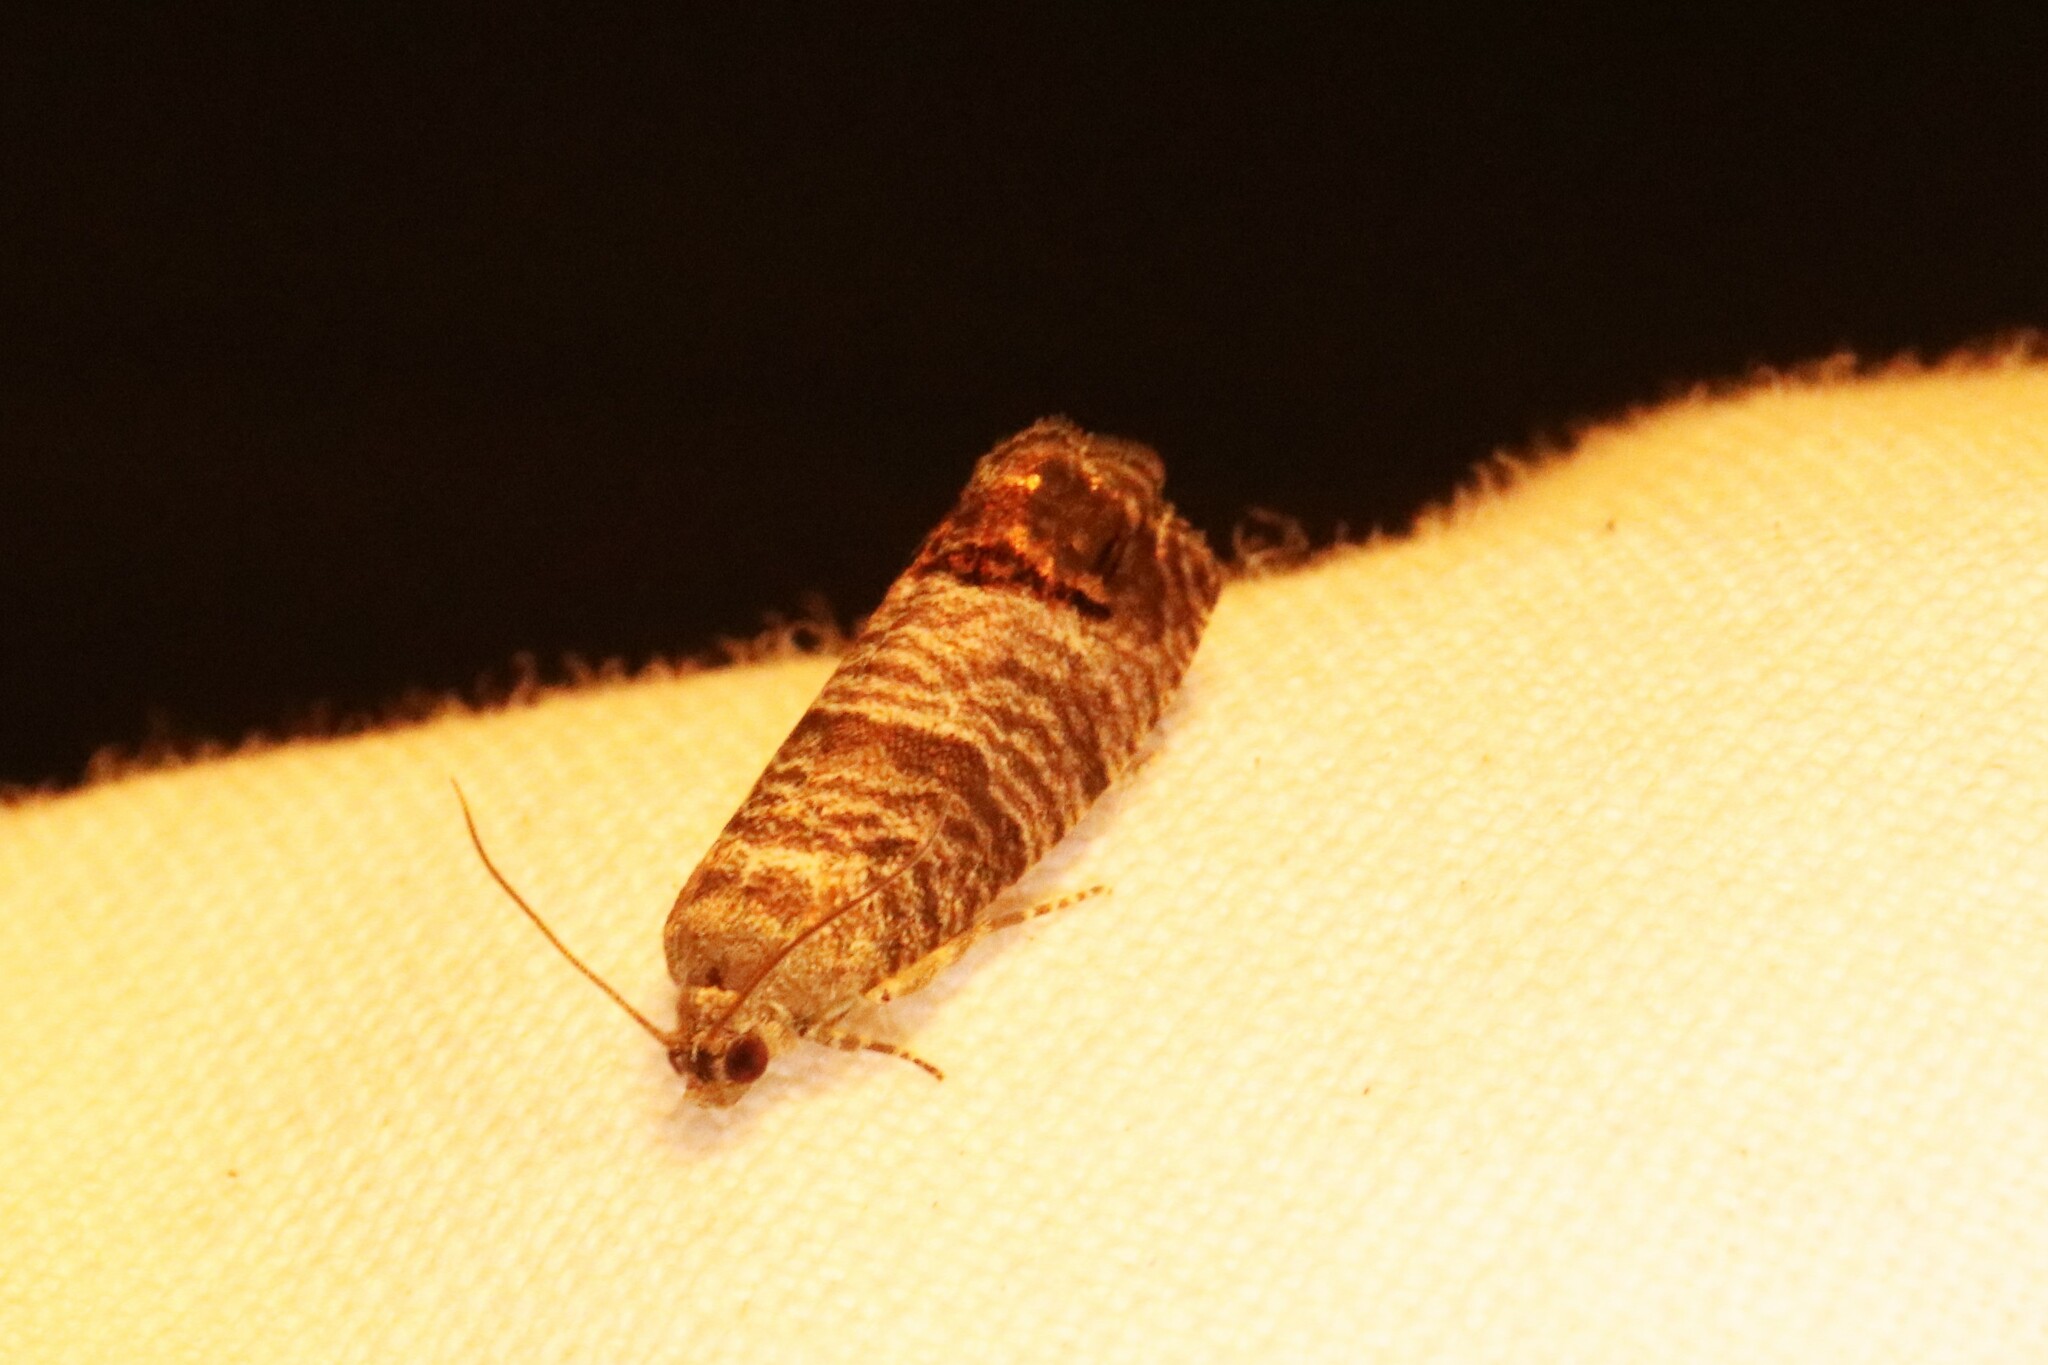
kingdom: Animalia
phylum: Arthropoda
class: Insecta
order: Lepidoptera
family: Tortricidae
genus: Cydia
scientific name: Cydia pomonella
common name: Codling moth
